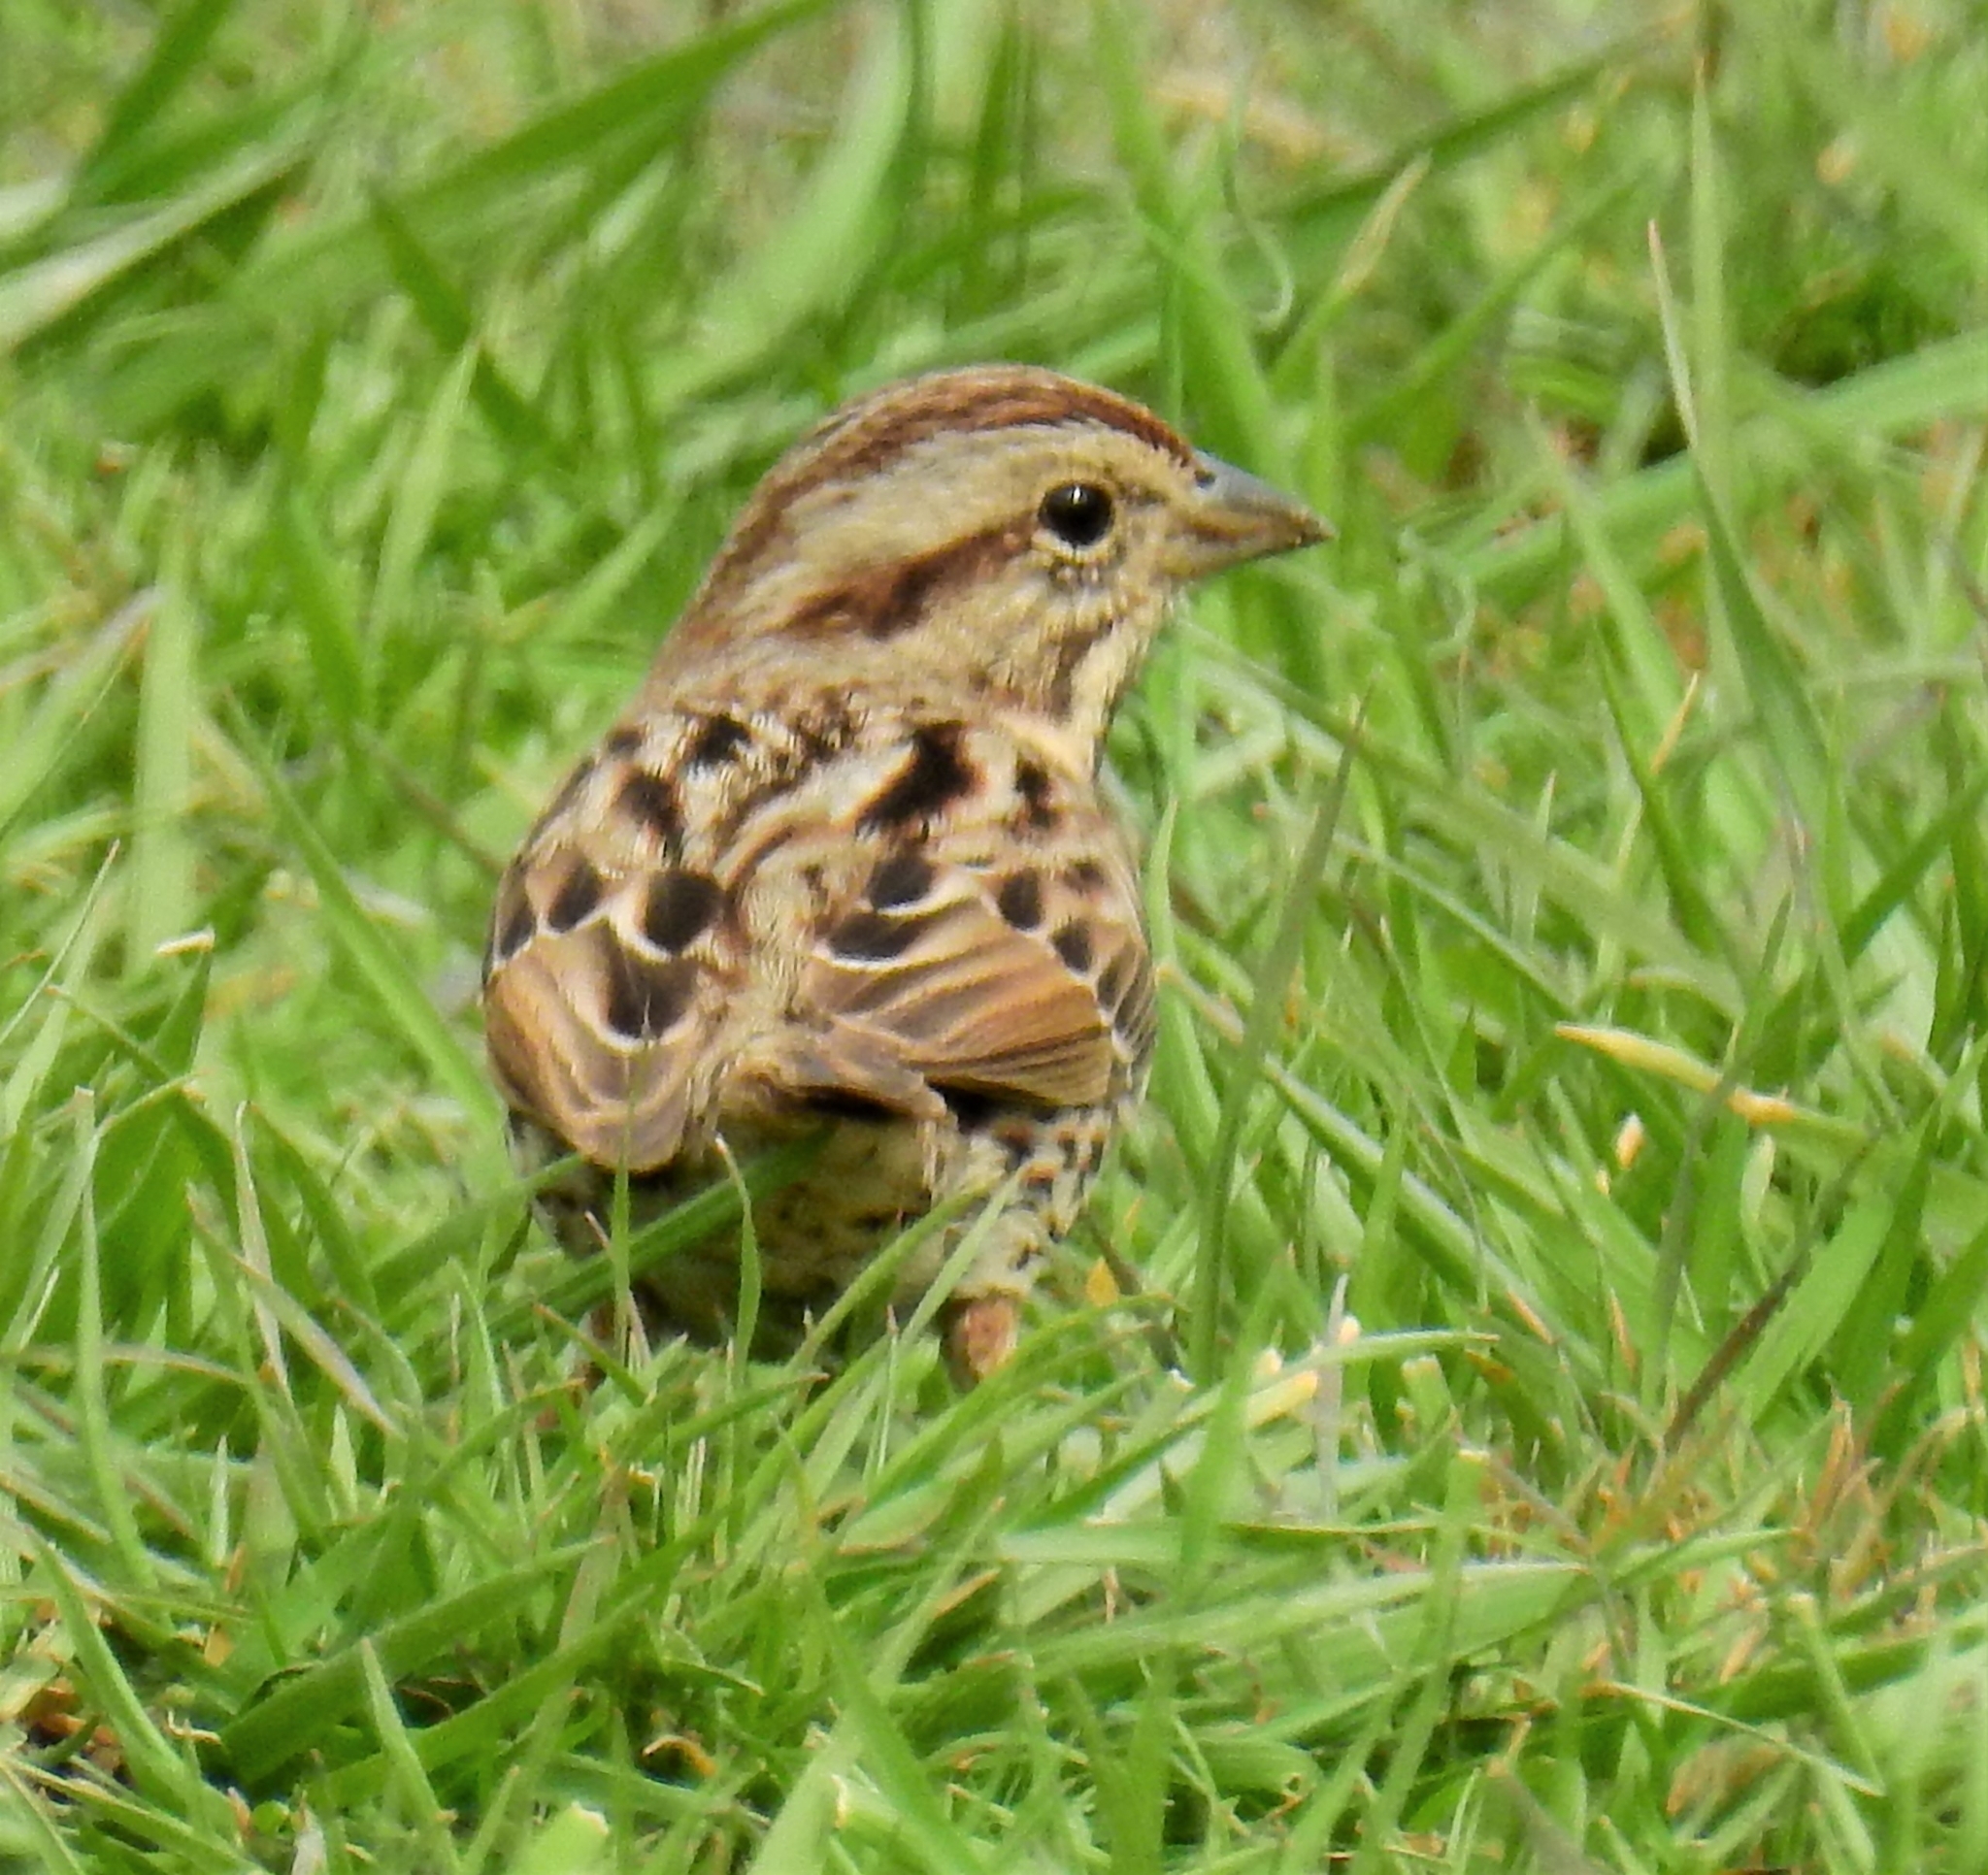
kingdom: Animalia
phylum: Chordata
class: Aves
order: Passeriformes
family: Passerellidae
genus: Melospiza
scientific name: Melospiza melodia
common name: Song sparrow
